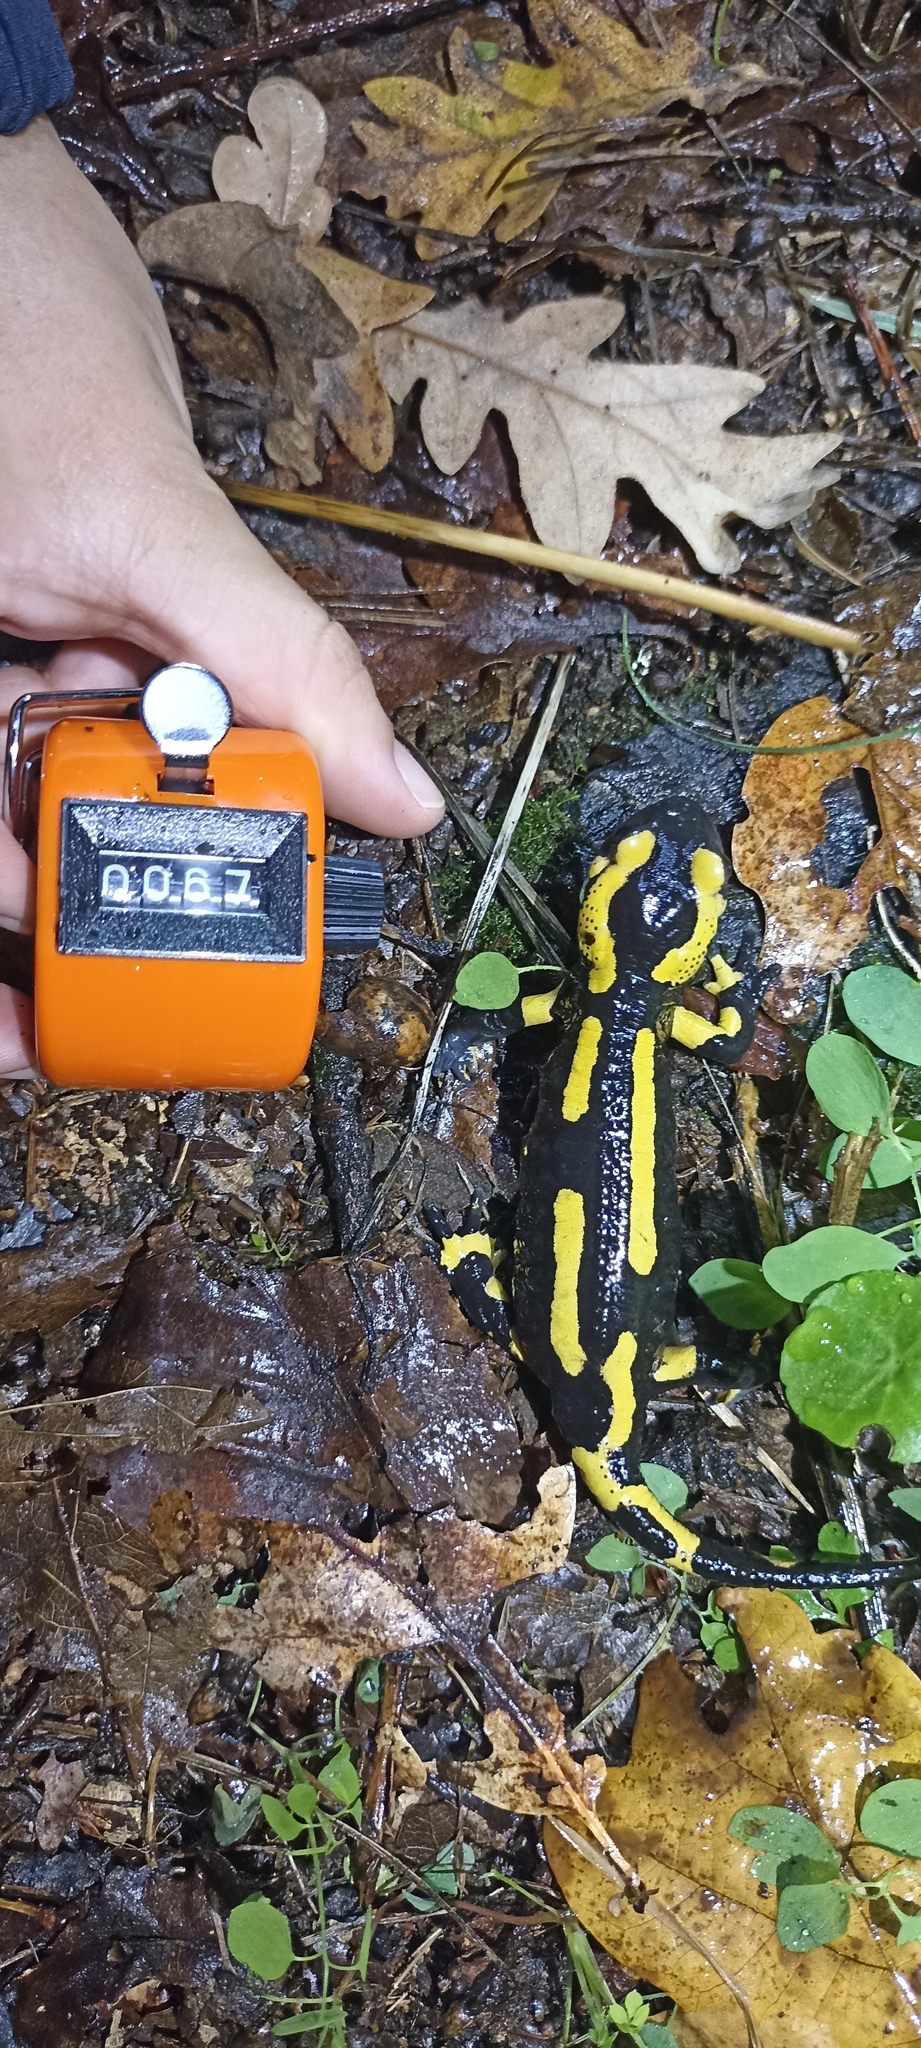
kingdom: Animalia
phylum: Chordata
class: Amphibia
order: Caudata
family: Salamandridae
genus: Salamandra
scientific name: Salamandra salamandra
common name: Fire salamander
